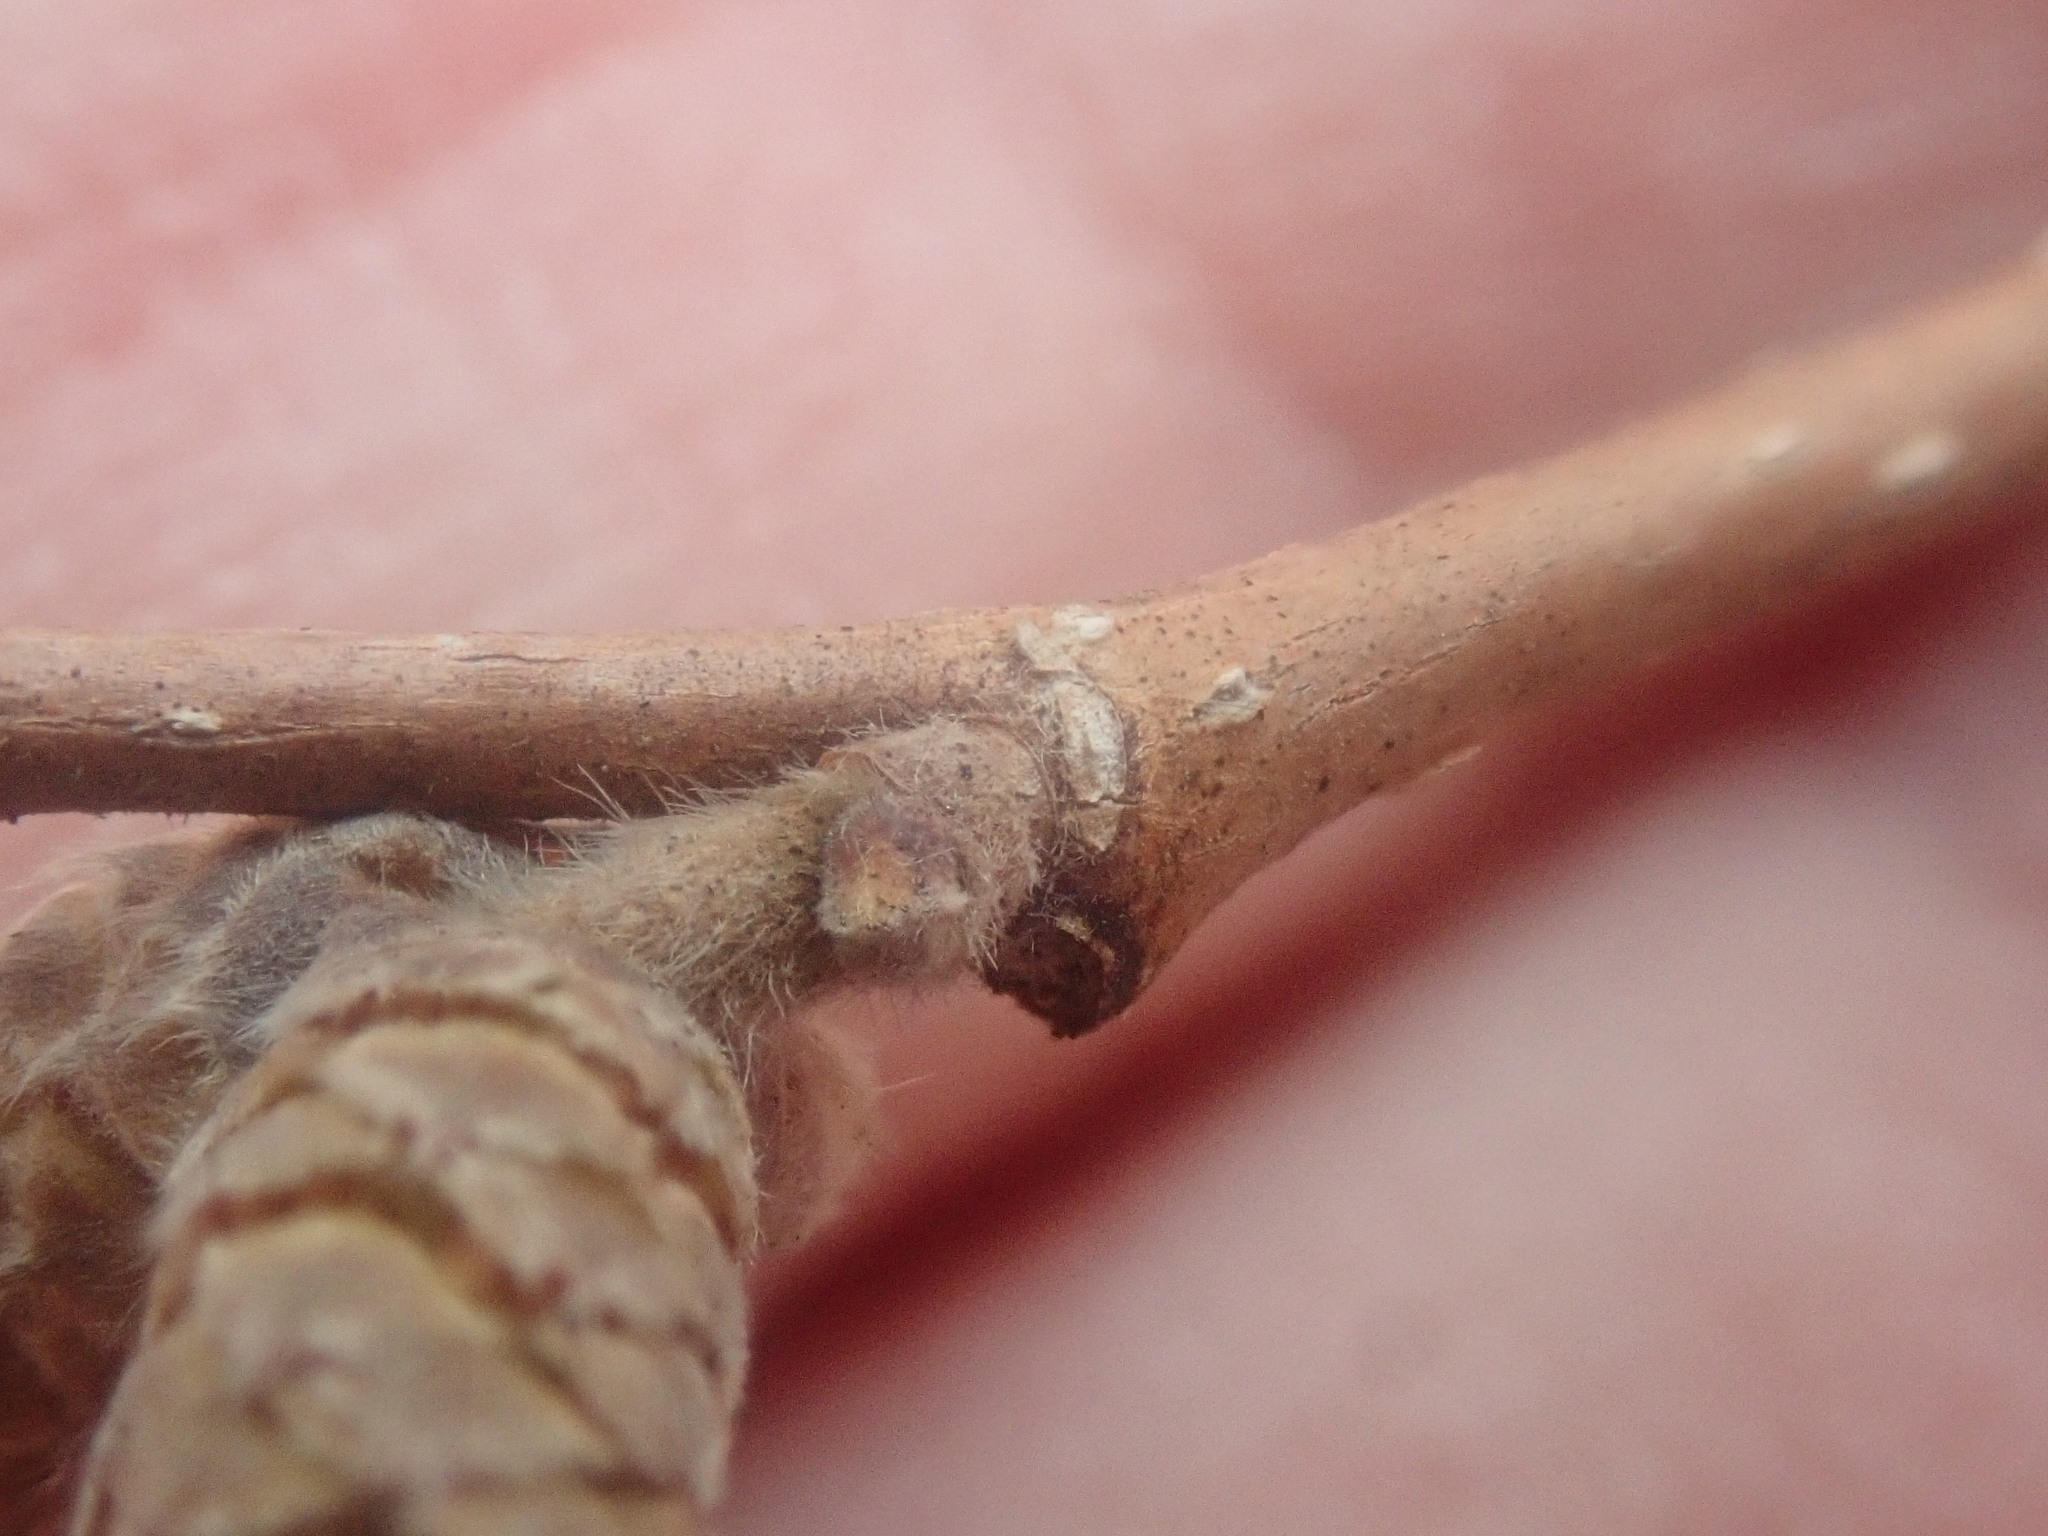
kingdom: Plantae
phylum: Tracheophyta
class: Magnoliopsida
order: Fagales
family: Betulaceae
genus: Corylus
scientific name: Corylus cornuta
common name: Beaked hazel
